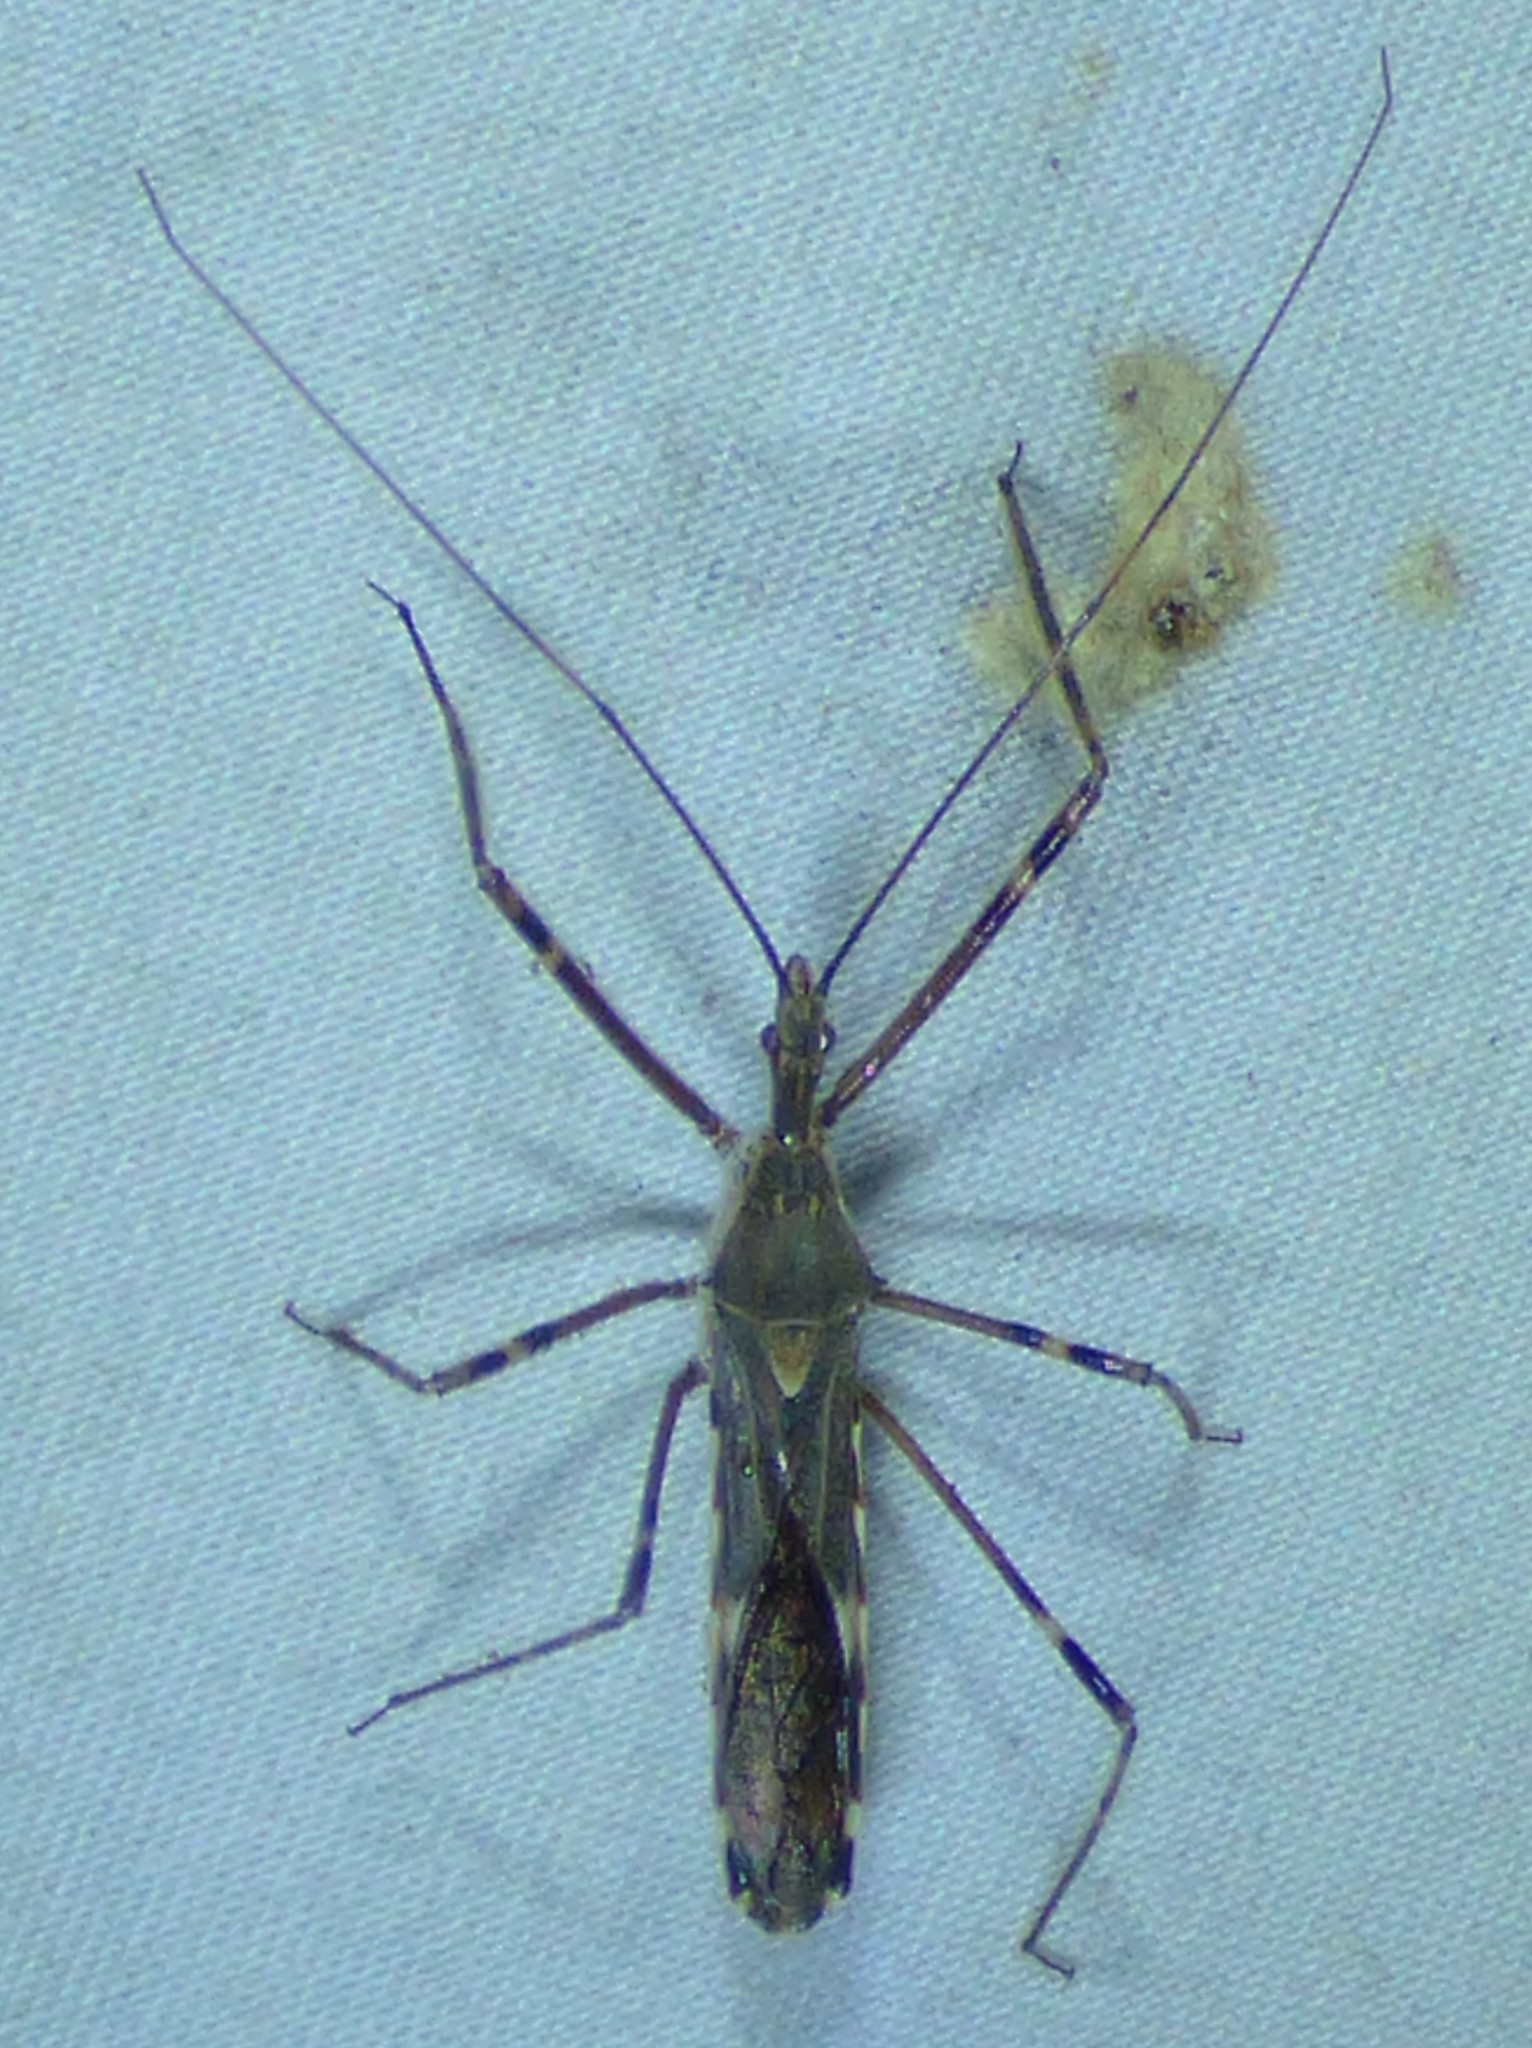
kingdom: Animalia
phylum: Arthropoda
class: Insecta
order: Hemiptera
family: Reduviidae
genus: Zelus
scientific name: Zelus tetracanthus
